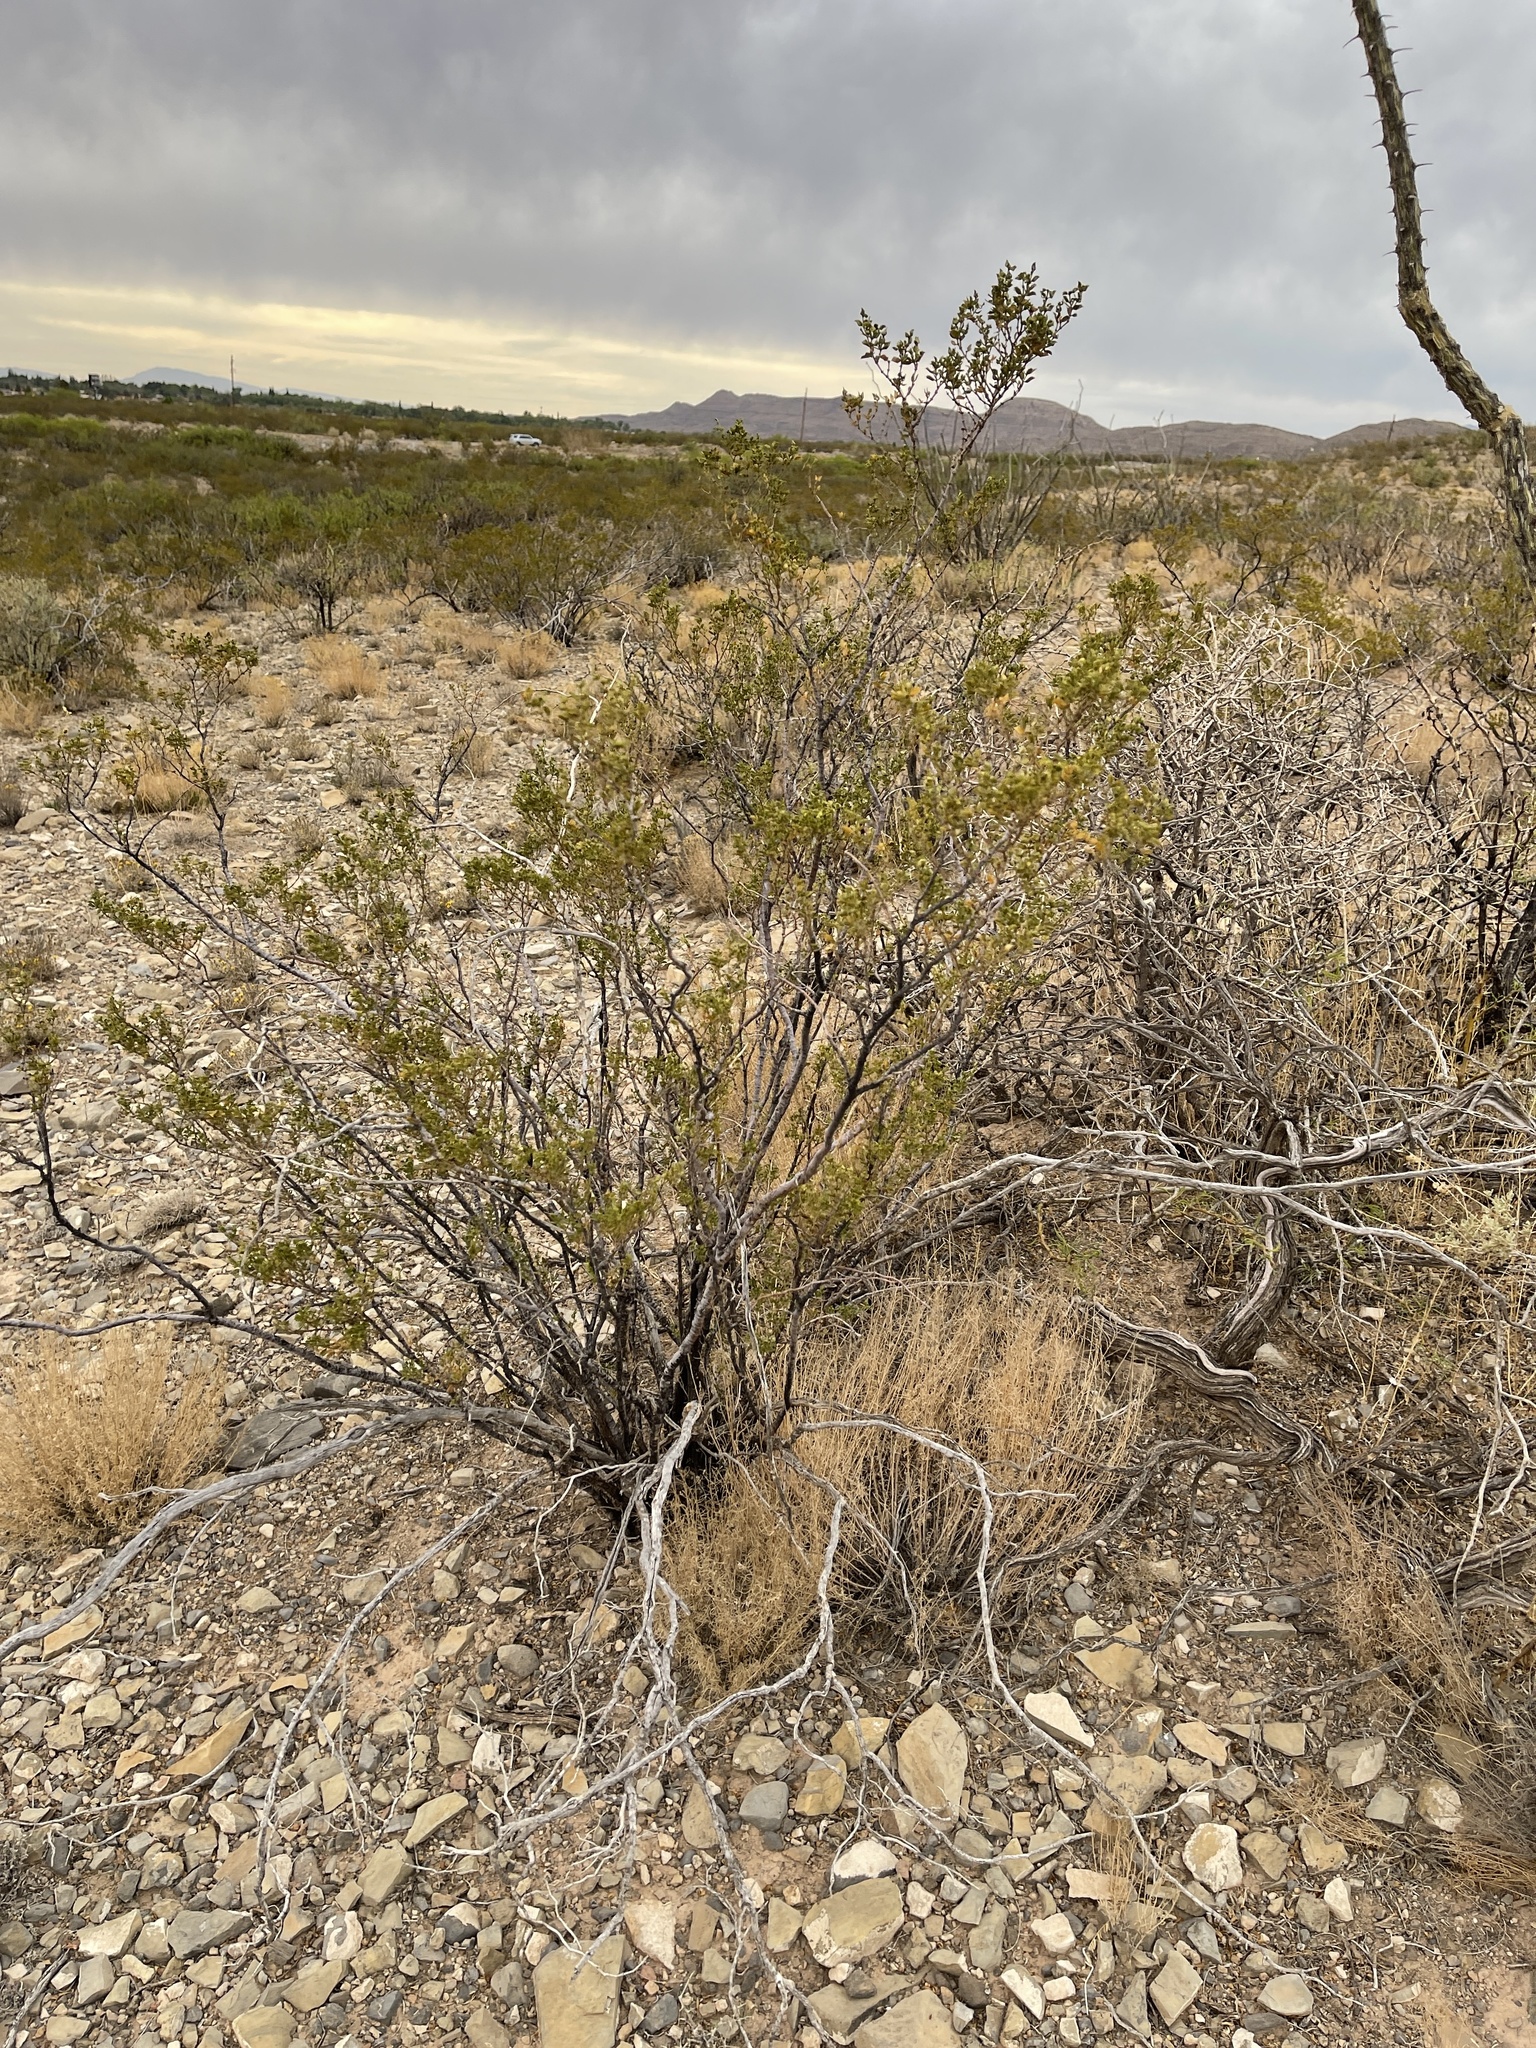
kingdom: Plantae
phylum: Tracheophyta
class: Magnoliopsida
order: Zygophyllales
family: Zygophyllaceae
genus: Larrea
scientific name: Larrea tridentata
